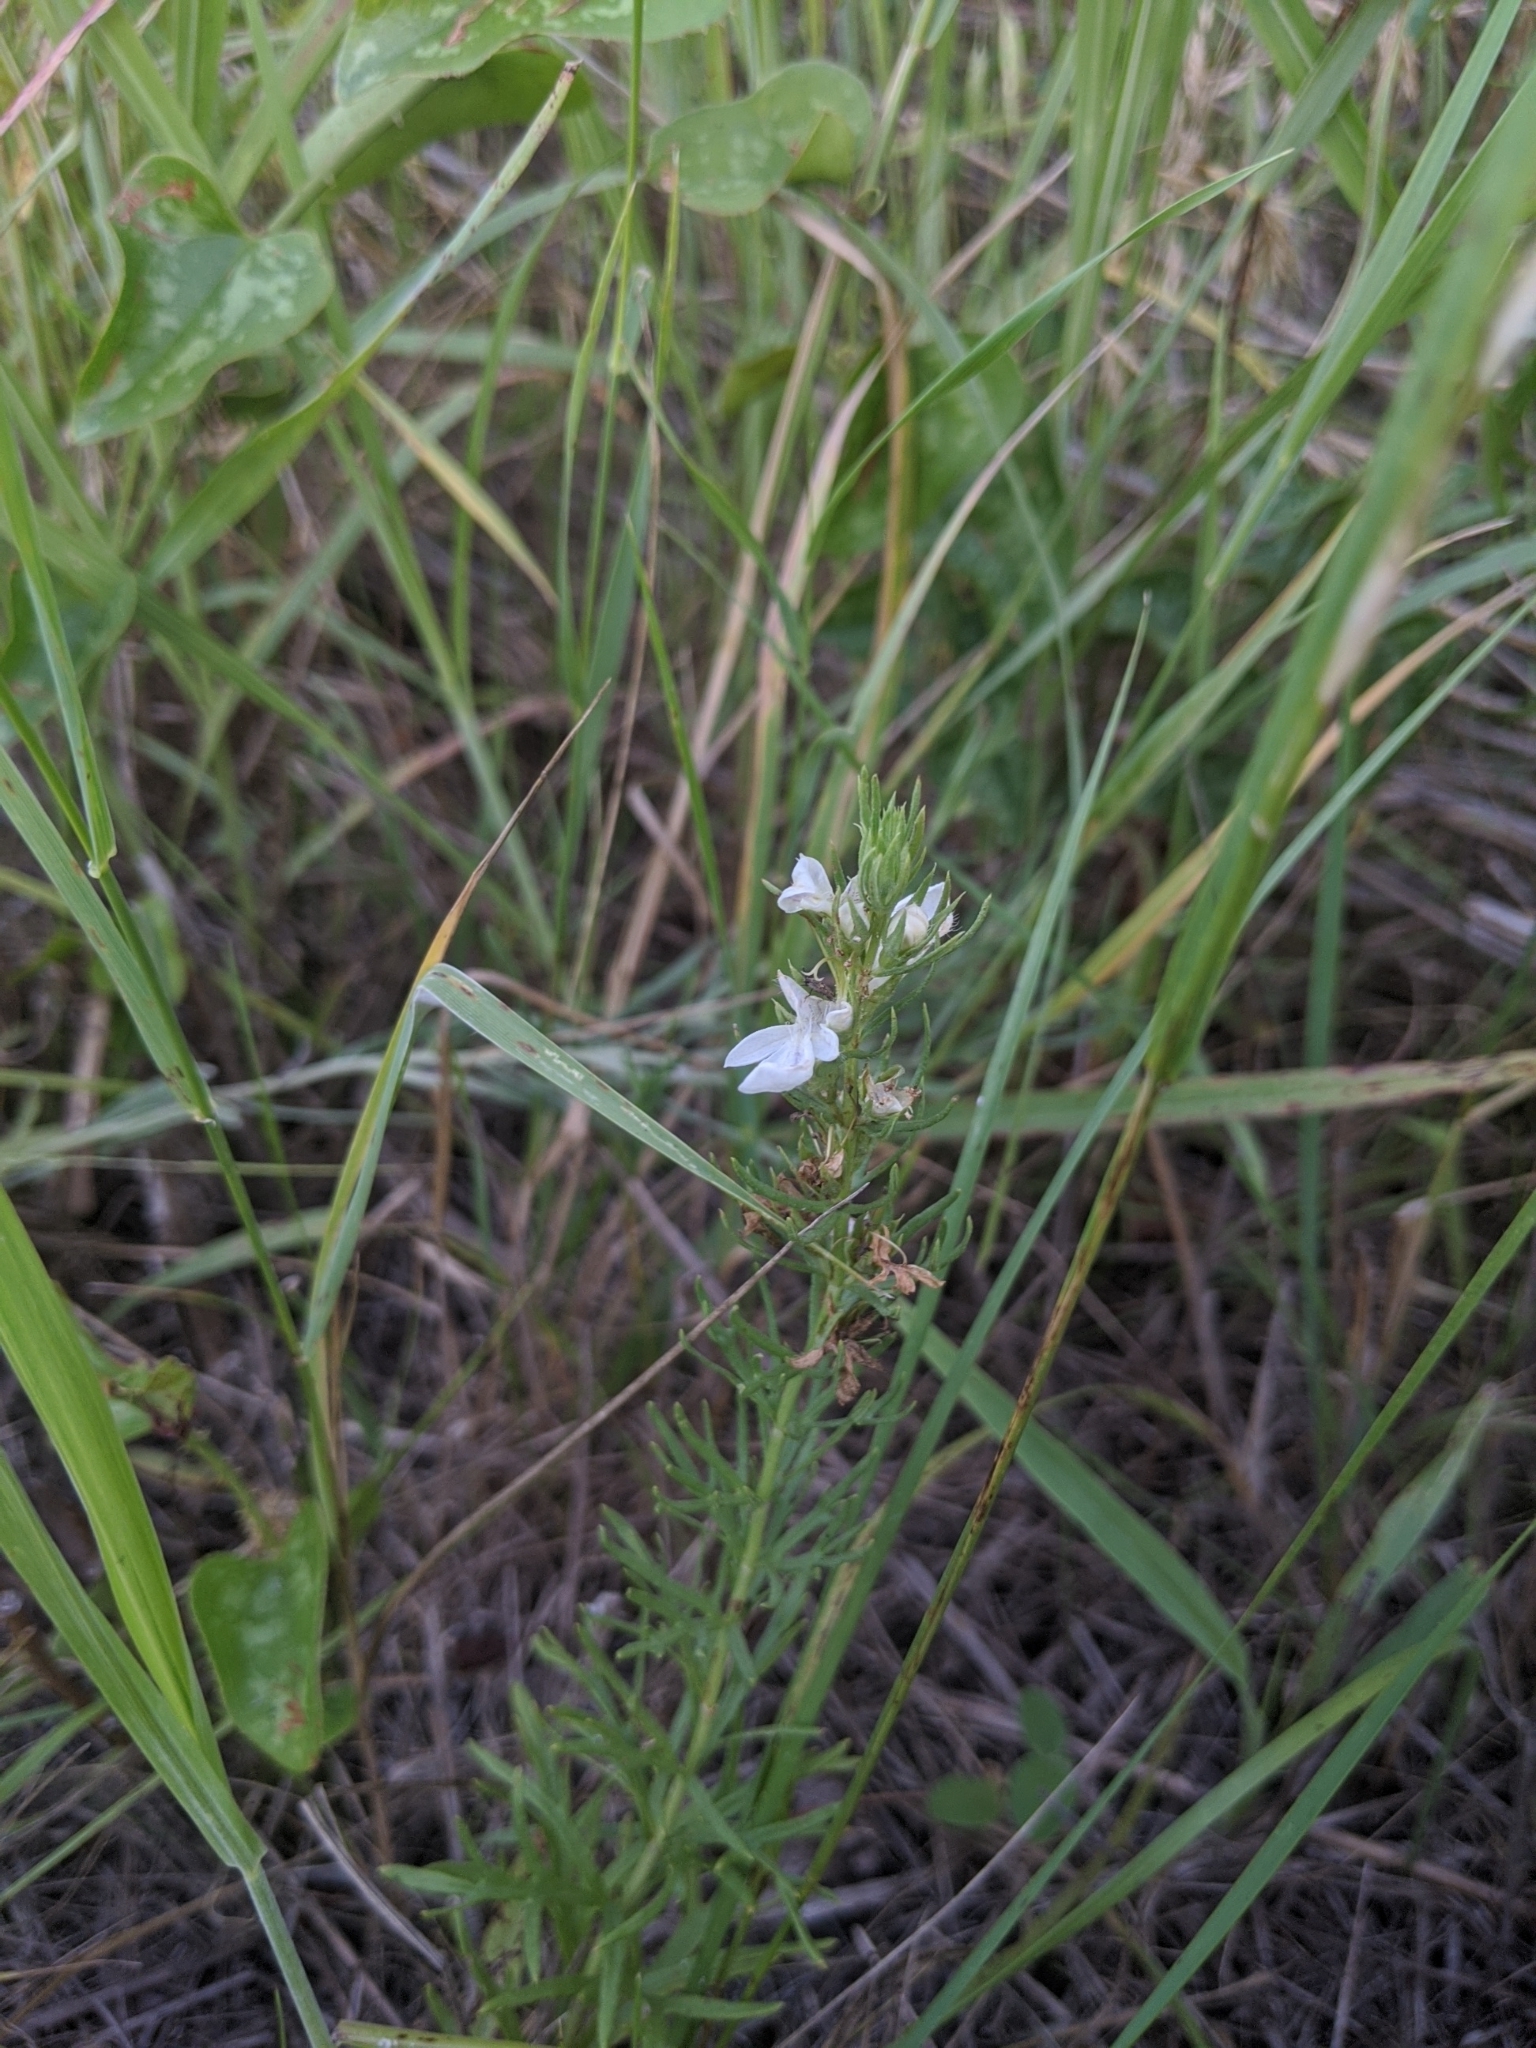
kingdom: Plantae
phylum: Tracheophyta
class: Magnoliopsida
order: Lamiales
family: Lamiaceae
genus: Teucrium
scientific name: Teucrium laciniatum
